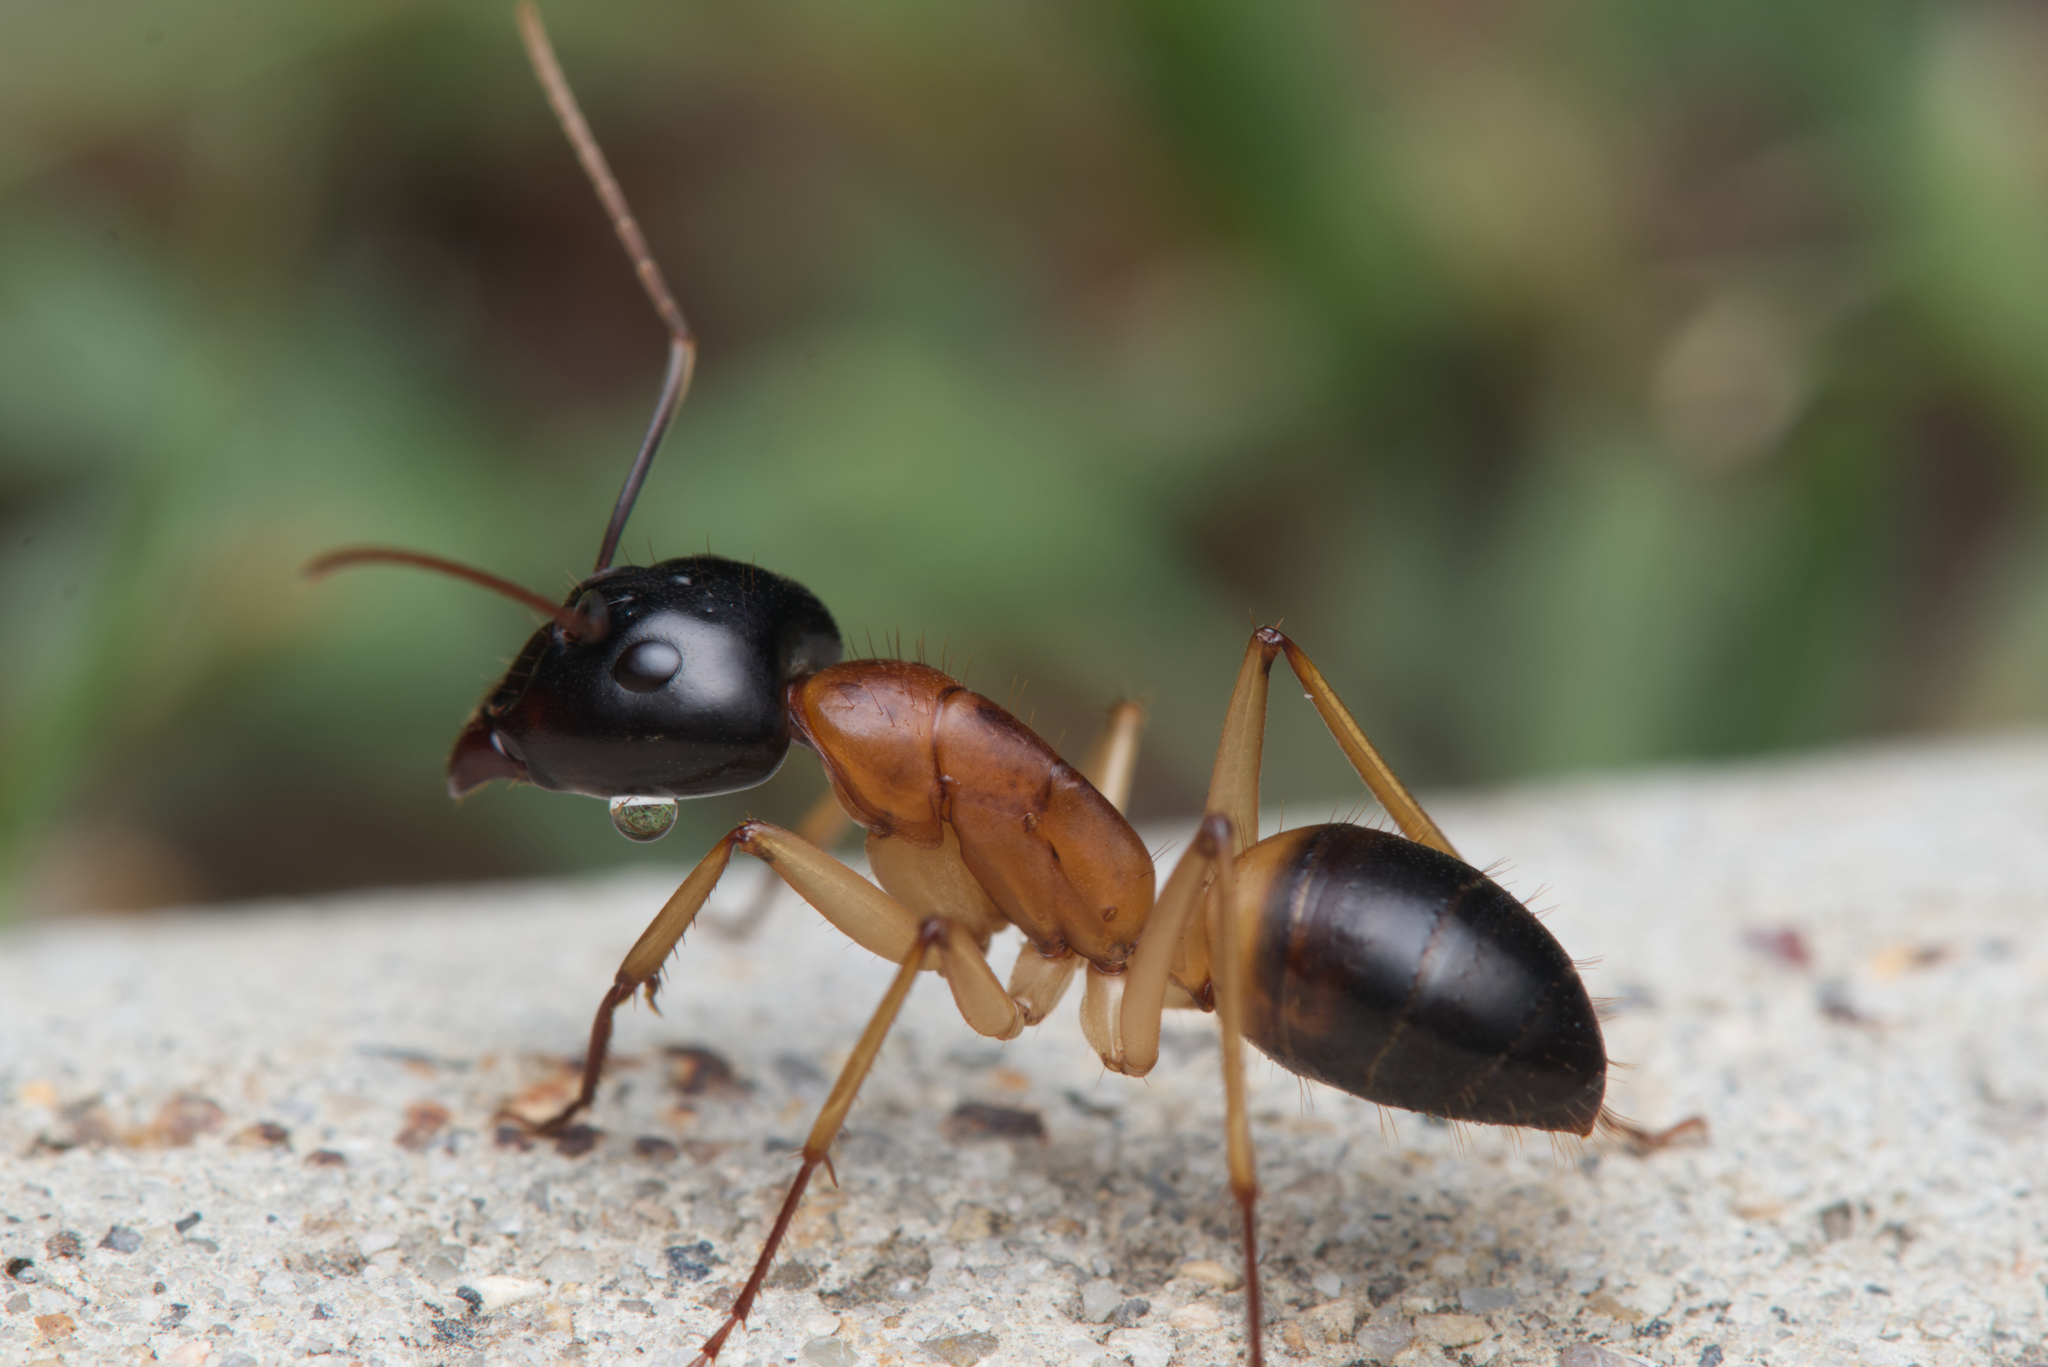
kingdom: Animalia
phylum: Arthropoda
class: Insecta
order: Hymenoptera
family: Formicidae
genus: Camponotus
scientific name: Camponotus consobrinus
